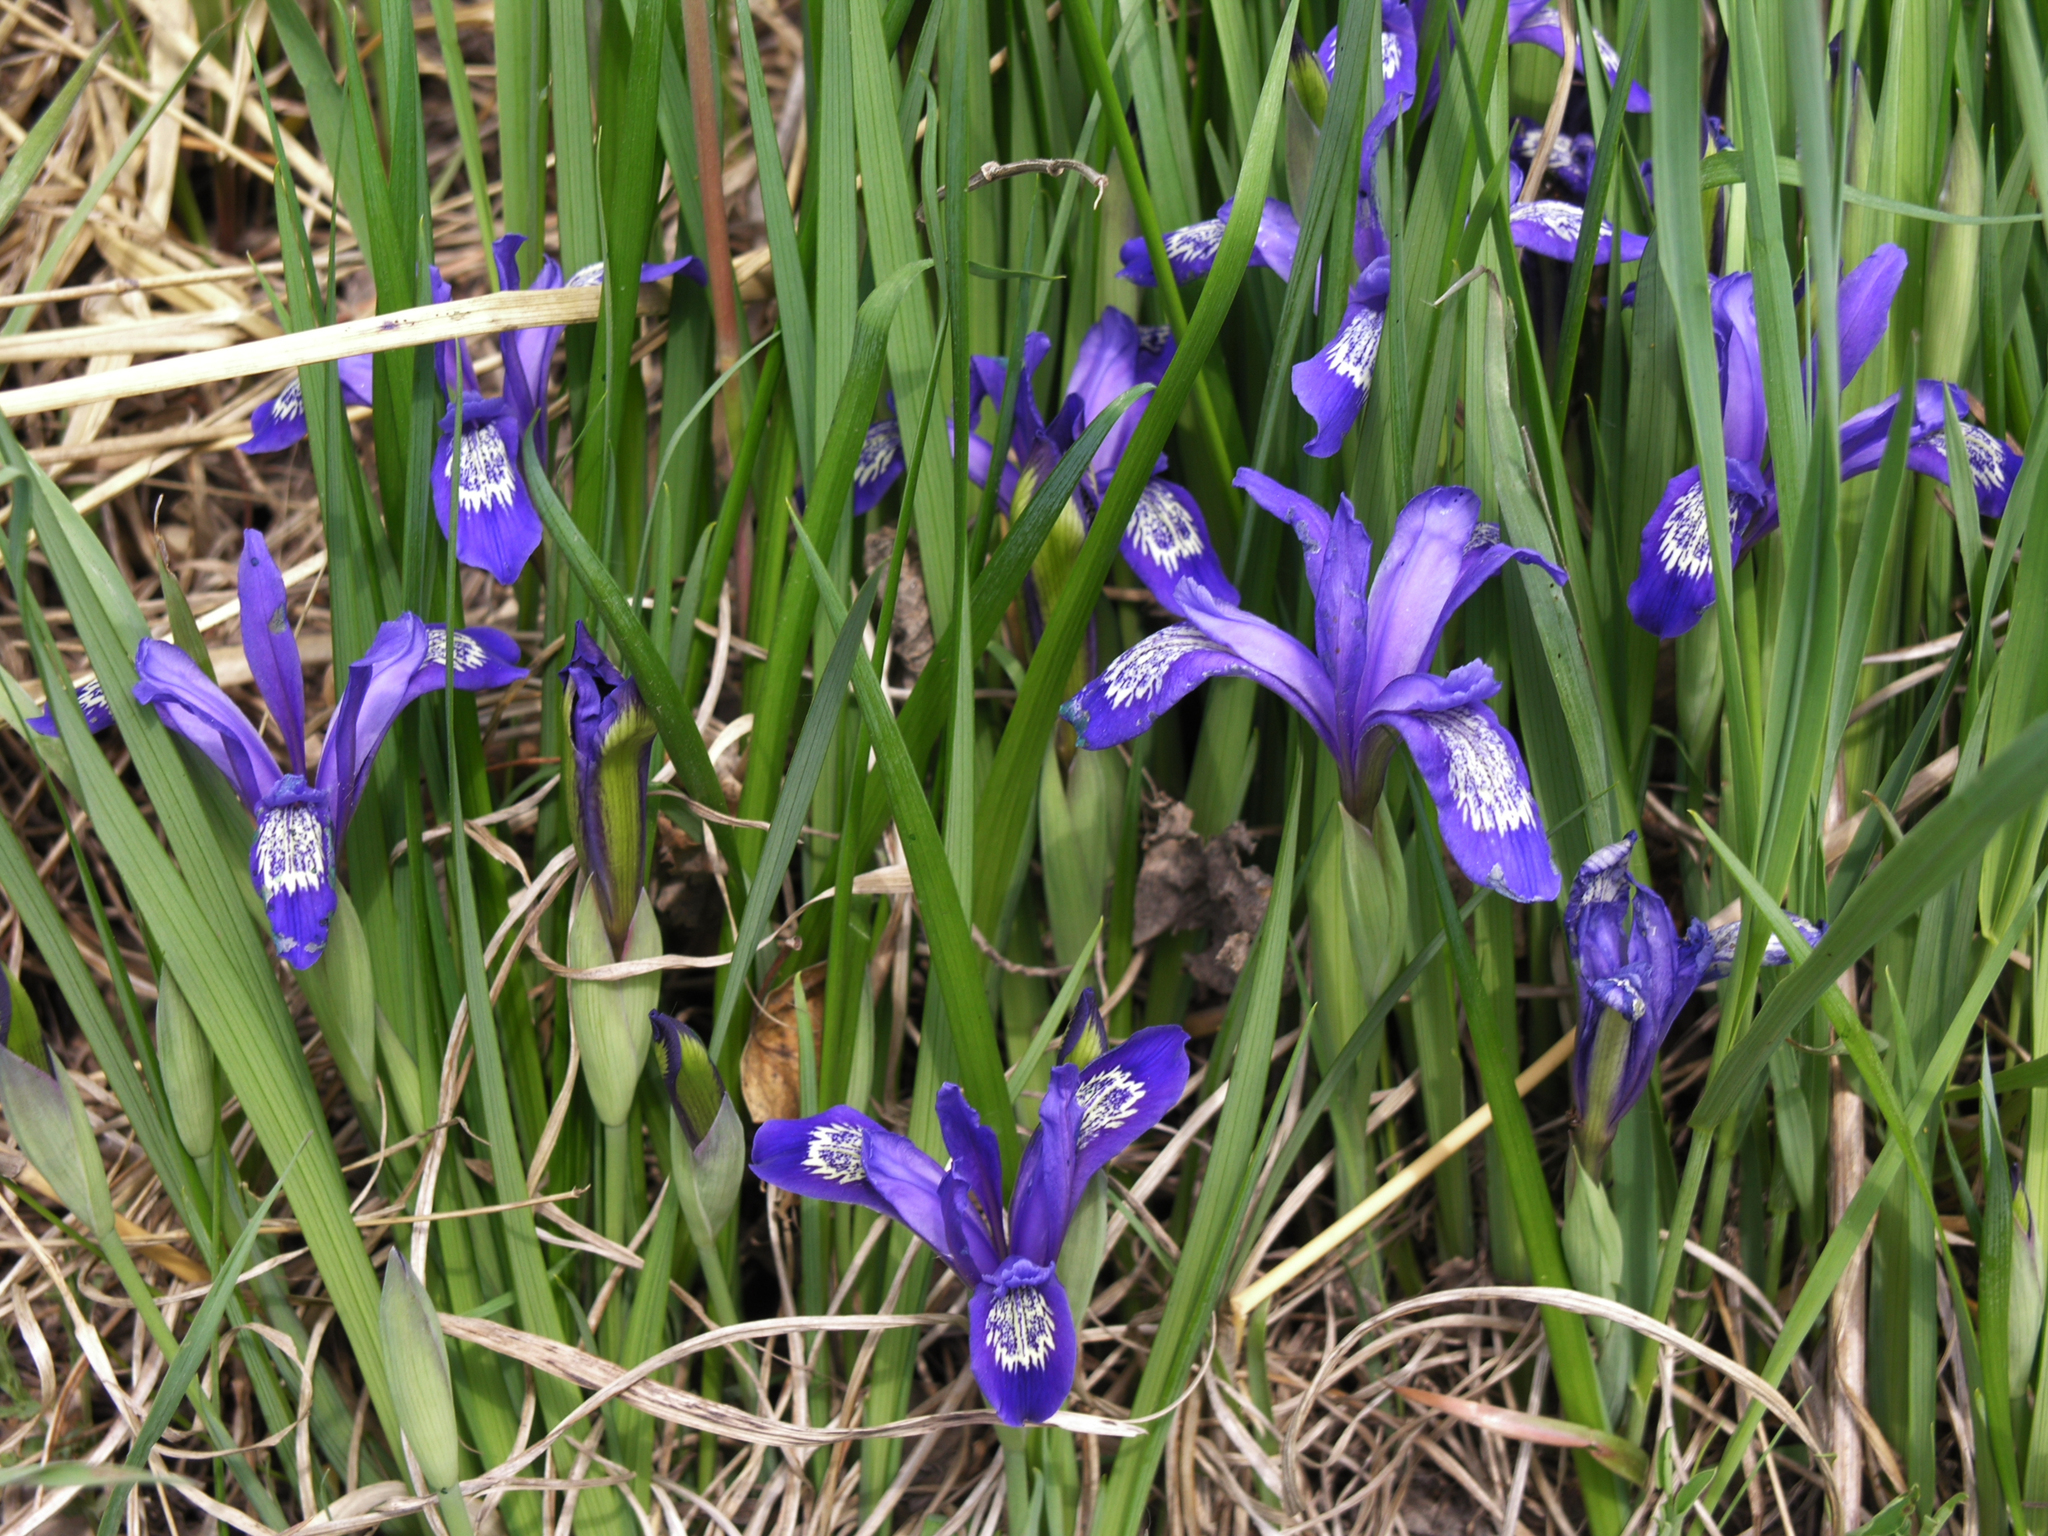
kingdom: Plantae
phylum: Tracheophyta
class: Liliopsida
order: Asparagales
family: Iridaceae
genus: Iris
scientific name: Iris ruthenica
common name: Purple-bract iris
